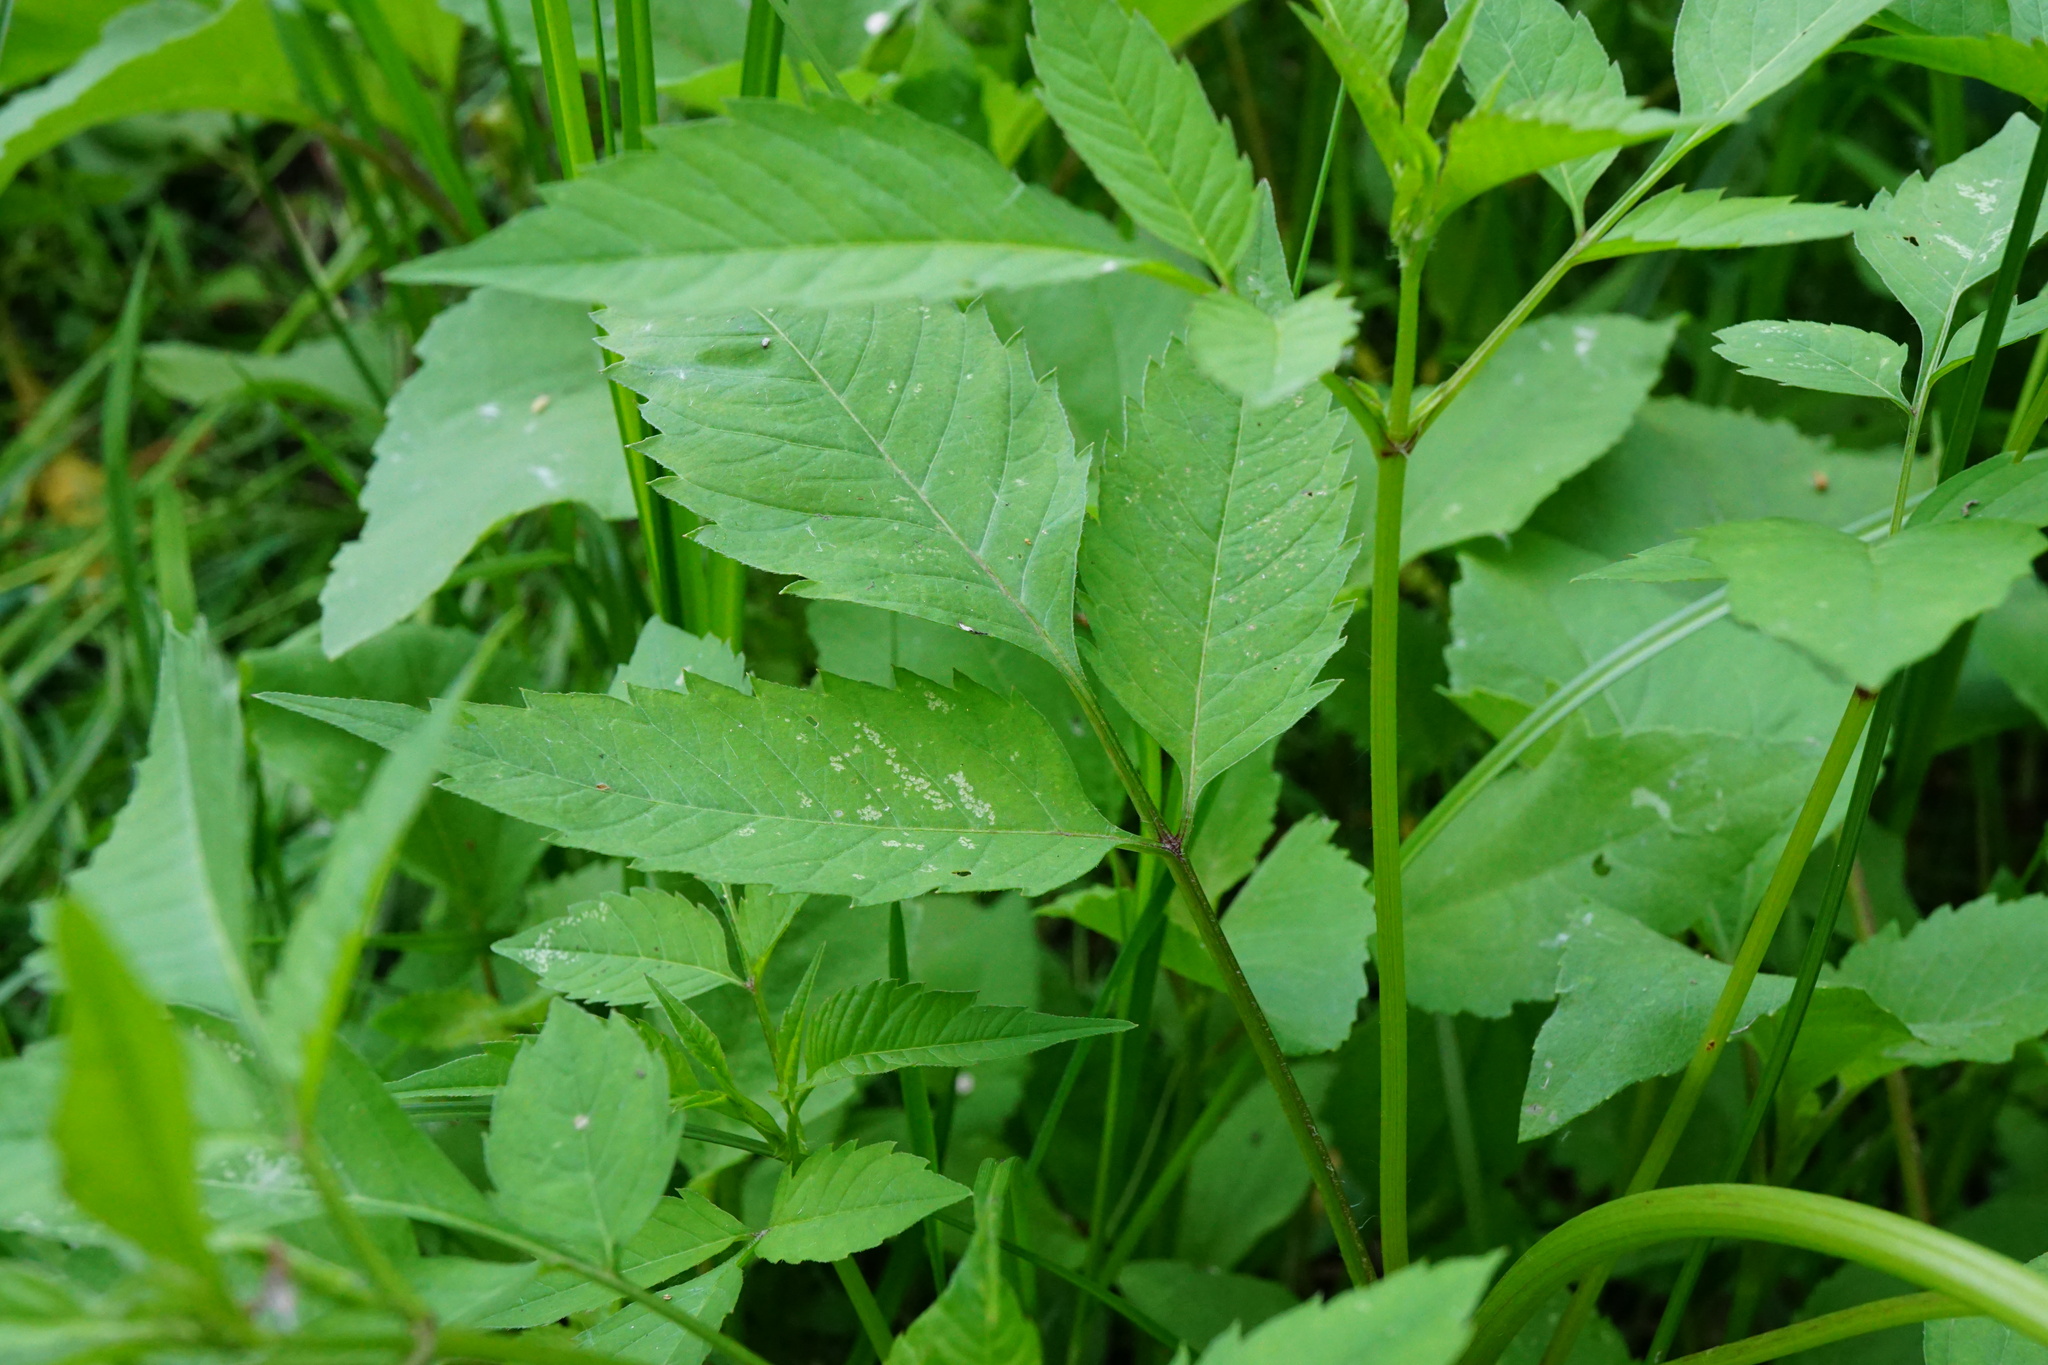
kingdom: Plantae
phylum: Tracheophyta
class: Magnoliopsida
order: Asterales
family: Asteraceae
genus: Bidens
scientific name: Bidens frondosa
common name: Beggarticks
